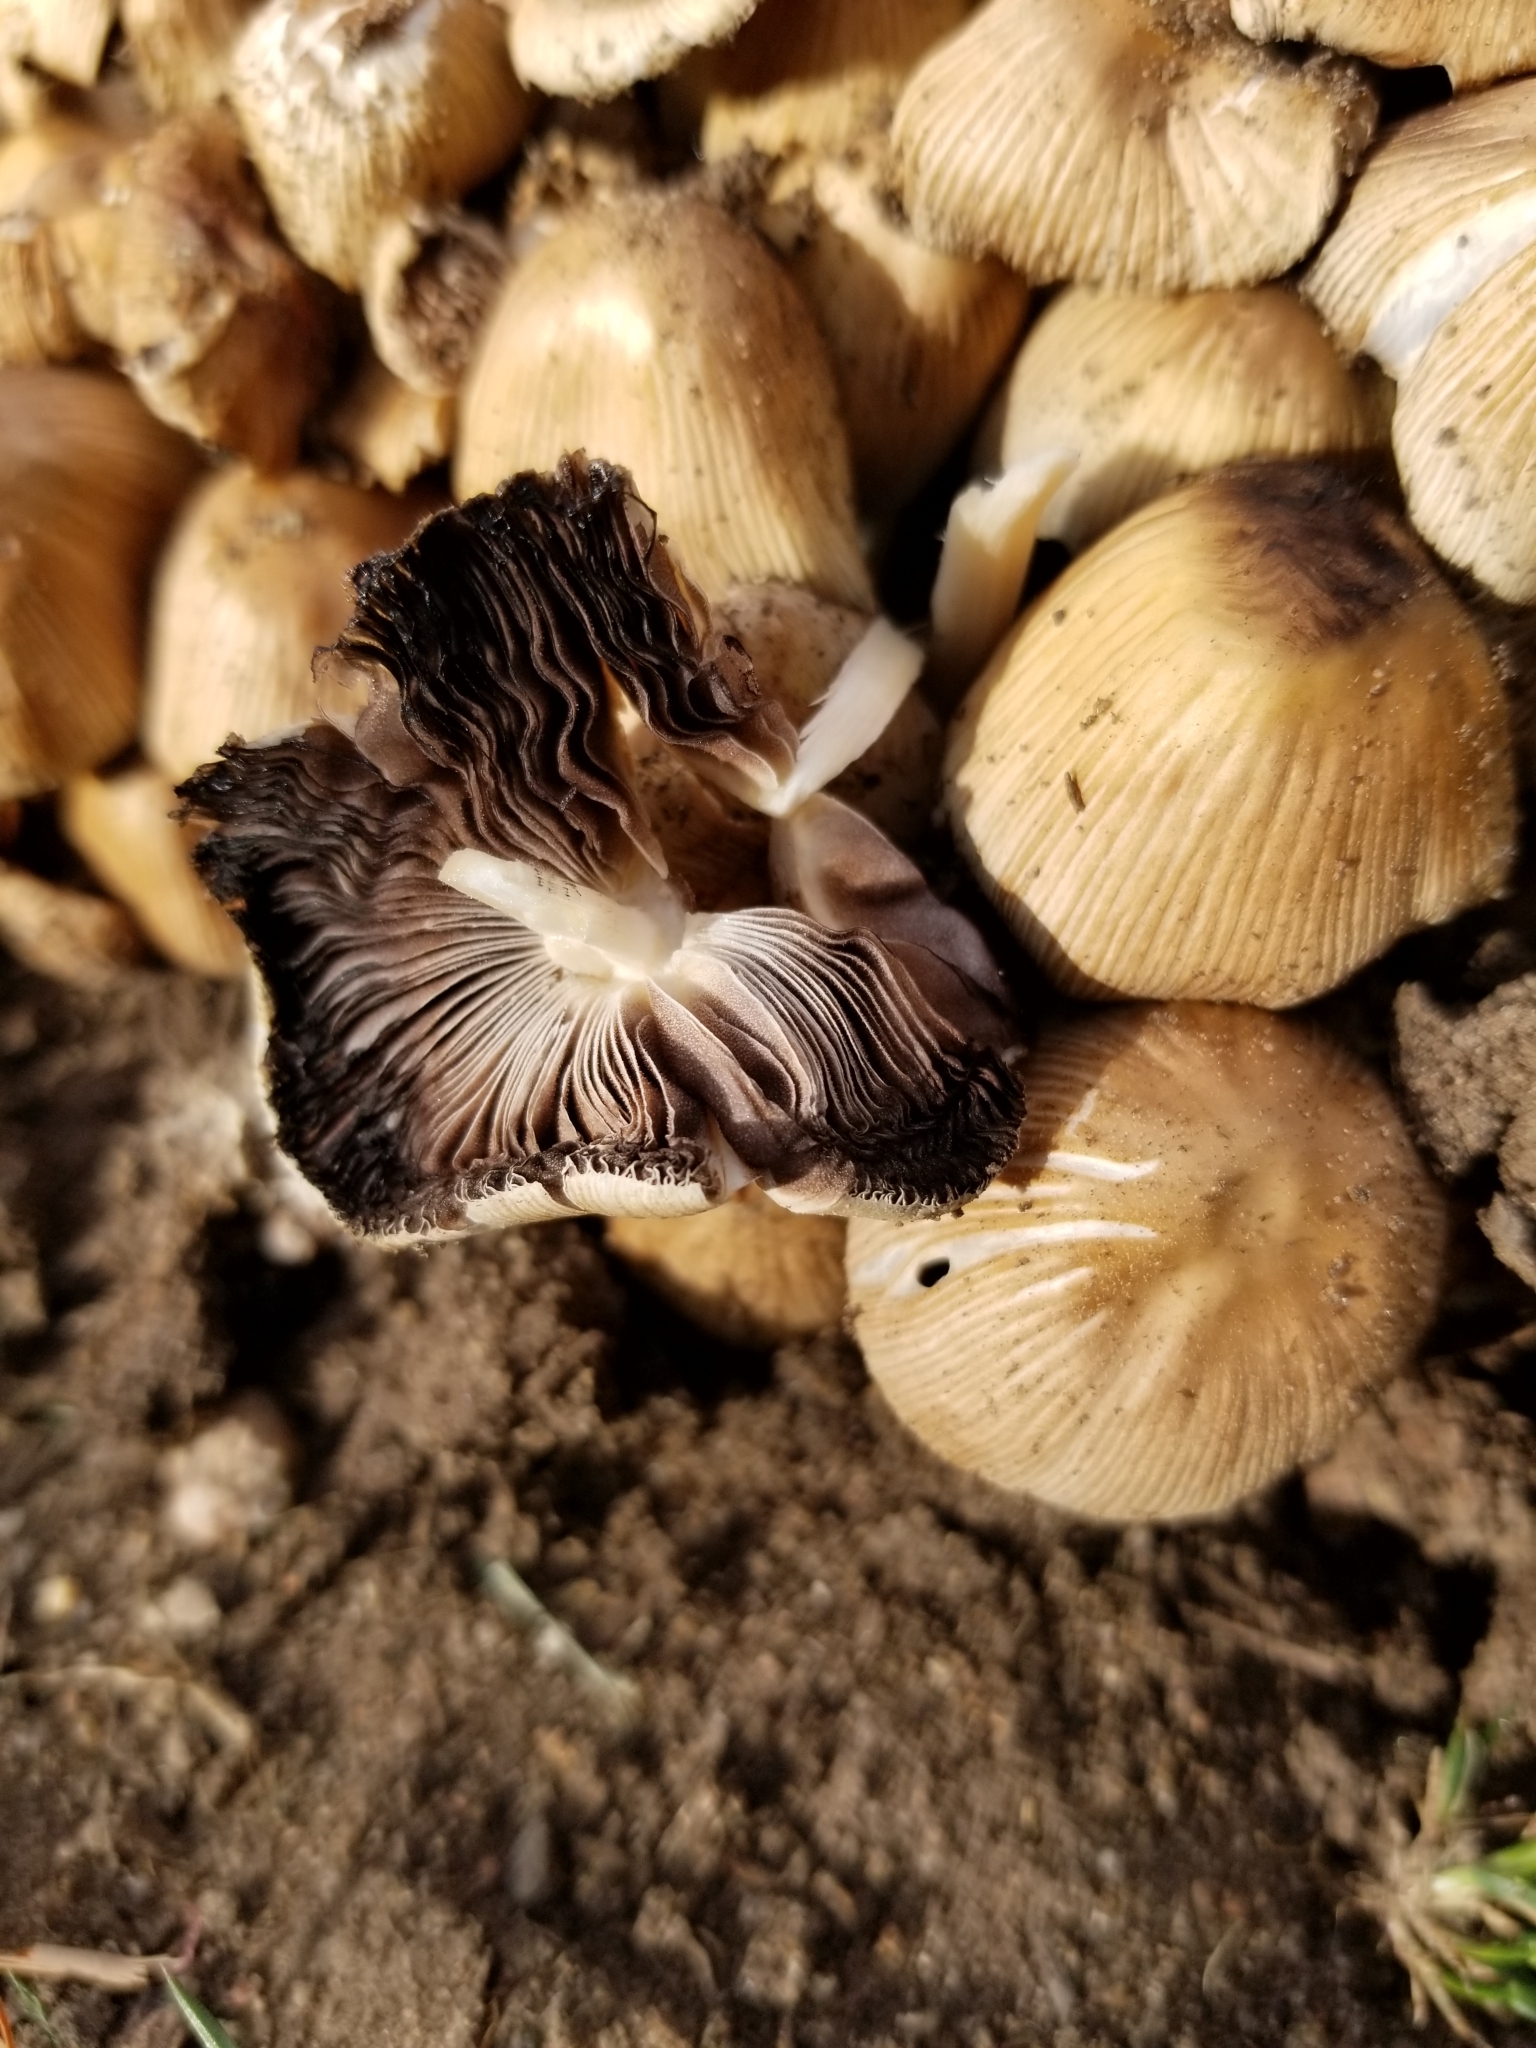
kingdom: Fungi
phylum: Basidiomycota
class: Agaricomycetes
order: Agaricales
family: Psathyrellaceae
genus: Coprinellus
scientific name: Coprinellus micaceus
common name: Glistening ink-cap
